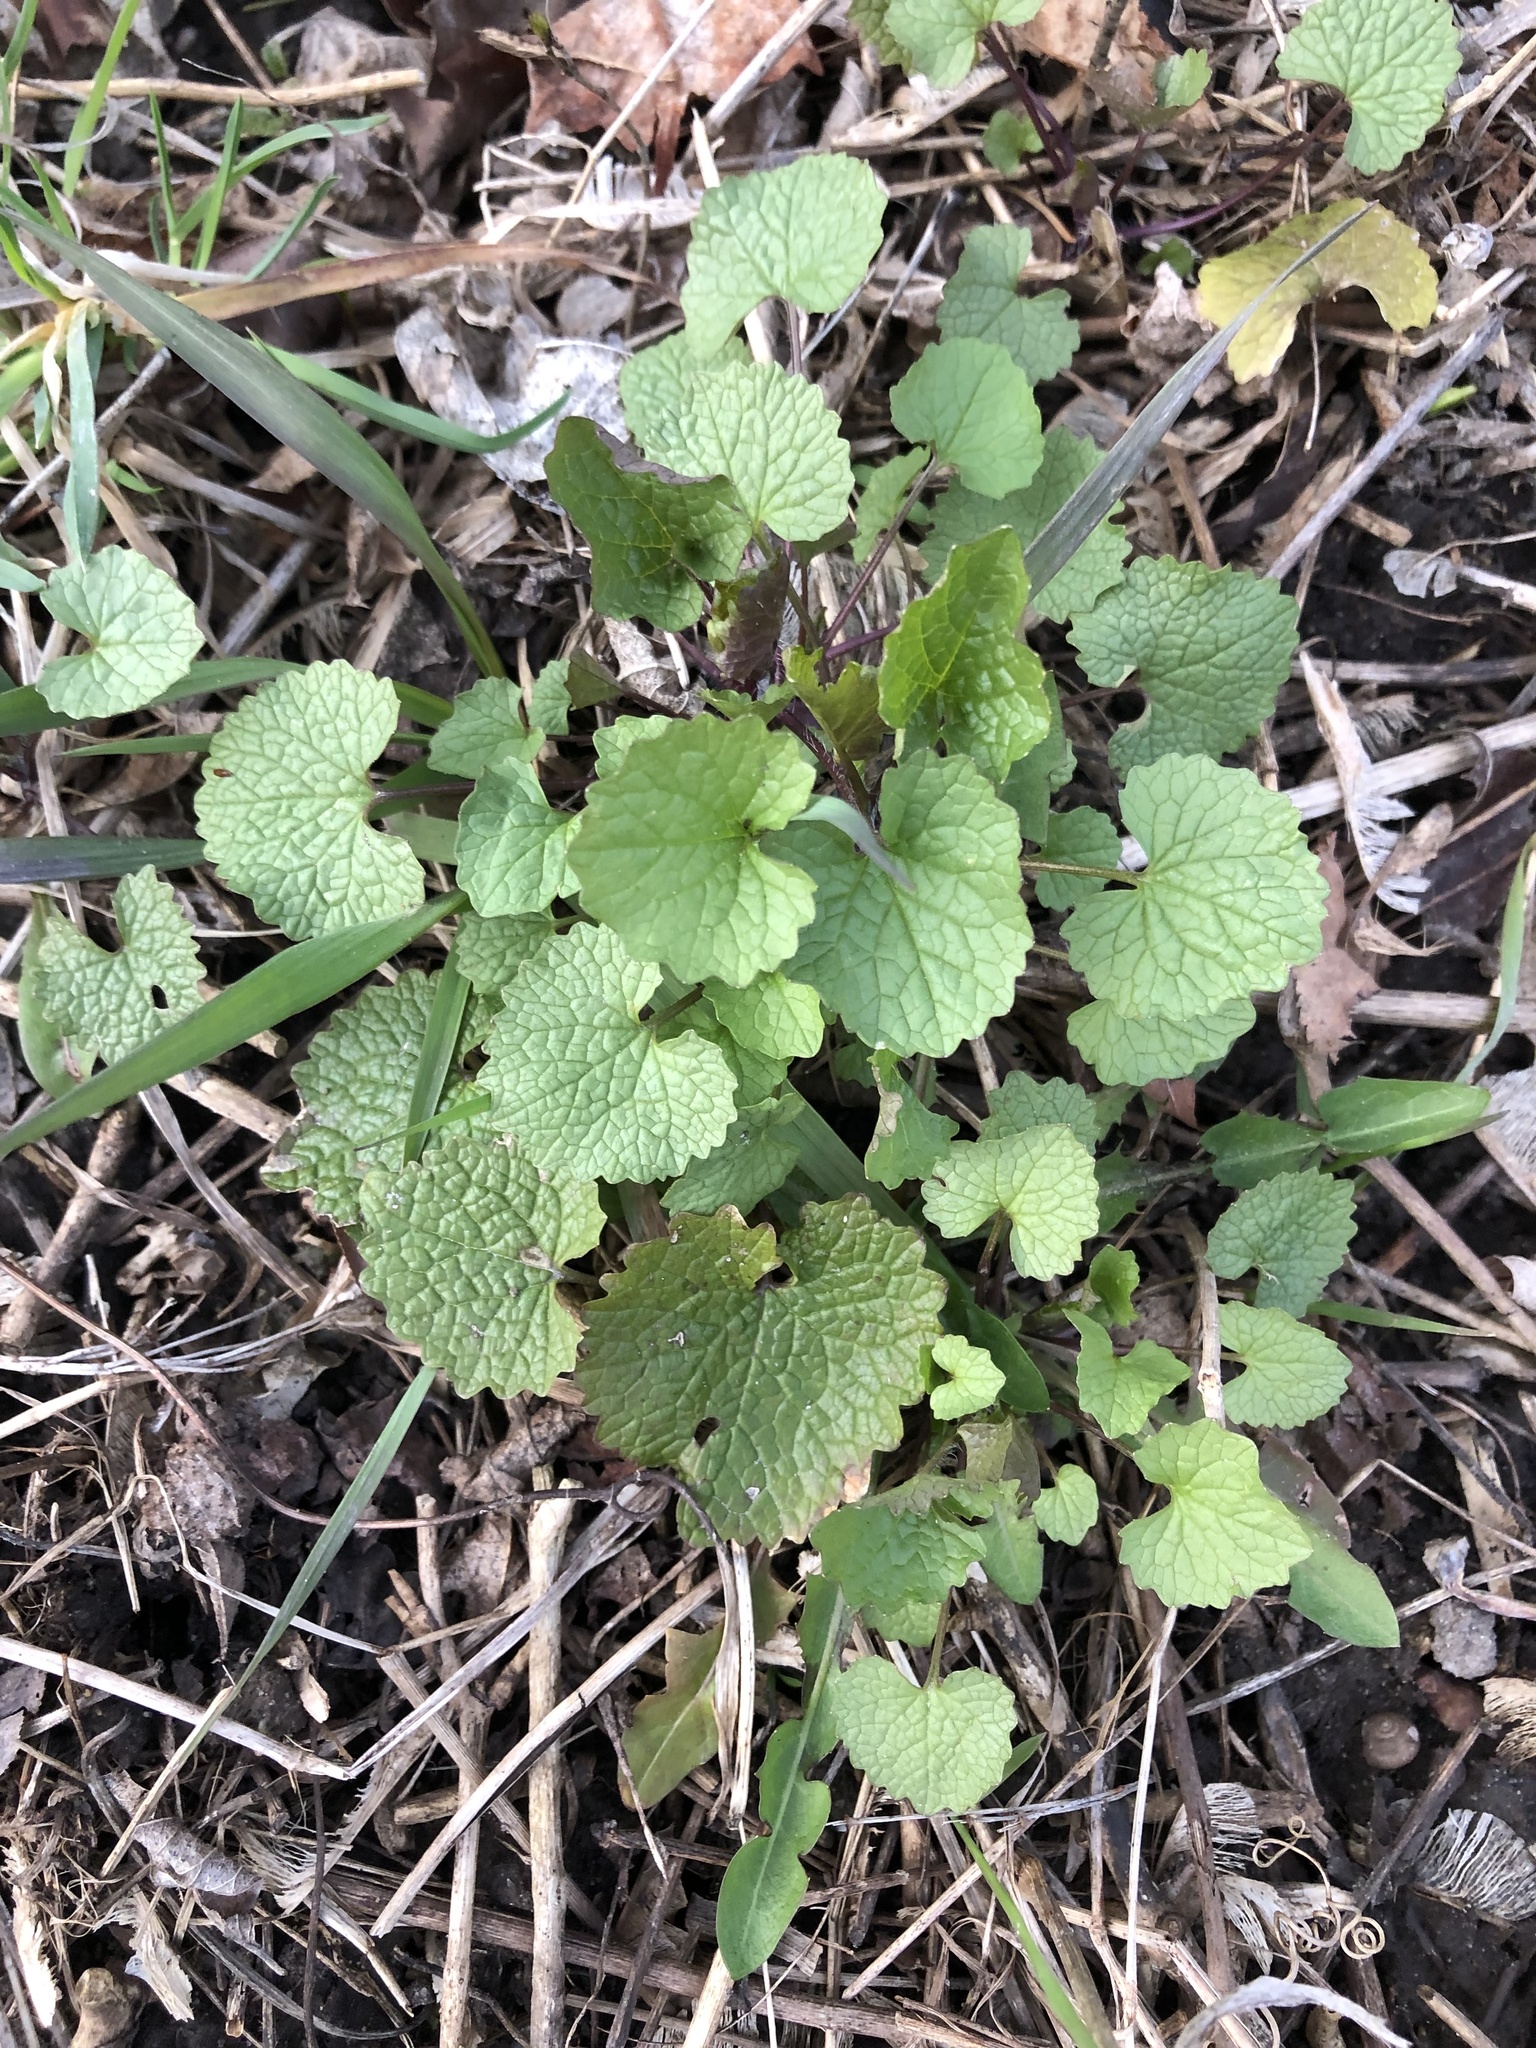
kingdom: Plantae
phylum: Tracheophyta
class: Magnoliopsida
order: Brassicales
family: Brassicaceae
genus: Alliaria
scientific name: Alliaria petiolata
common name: Garlic mustard
